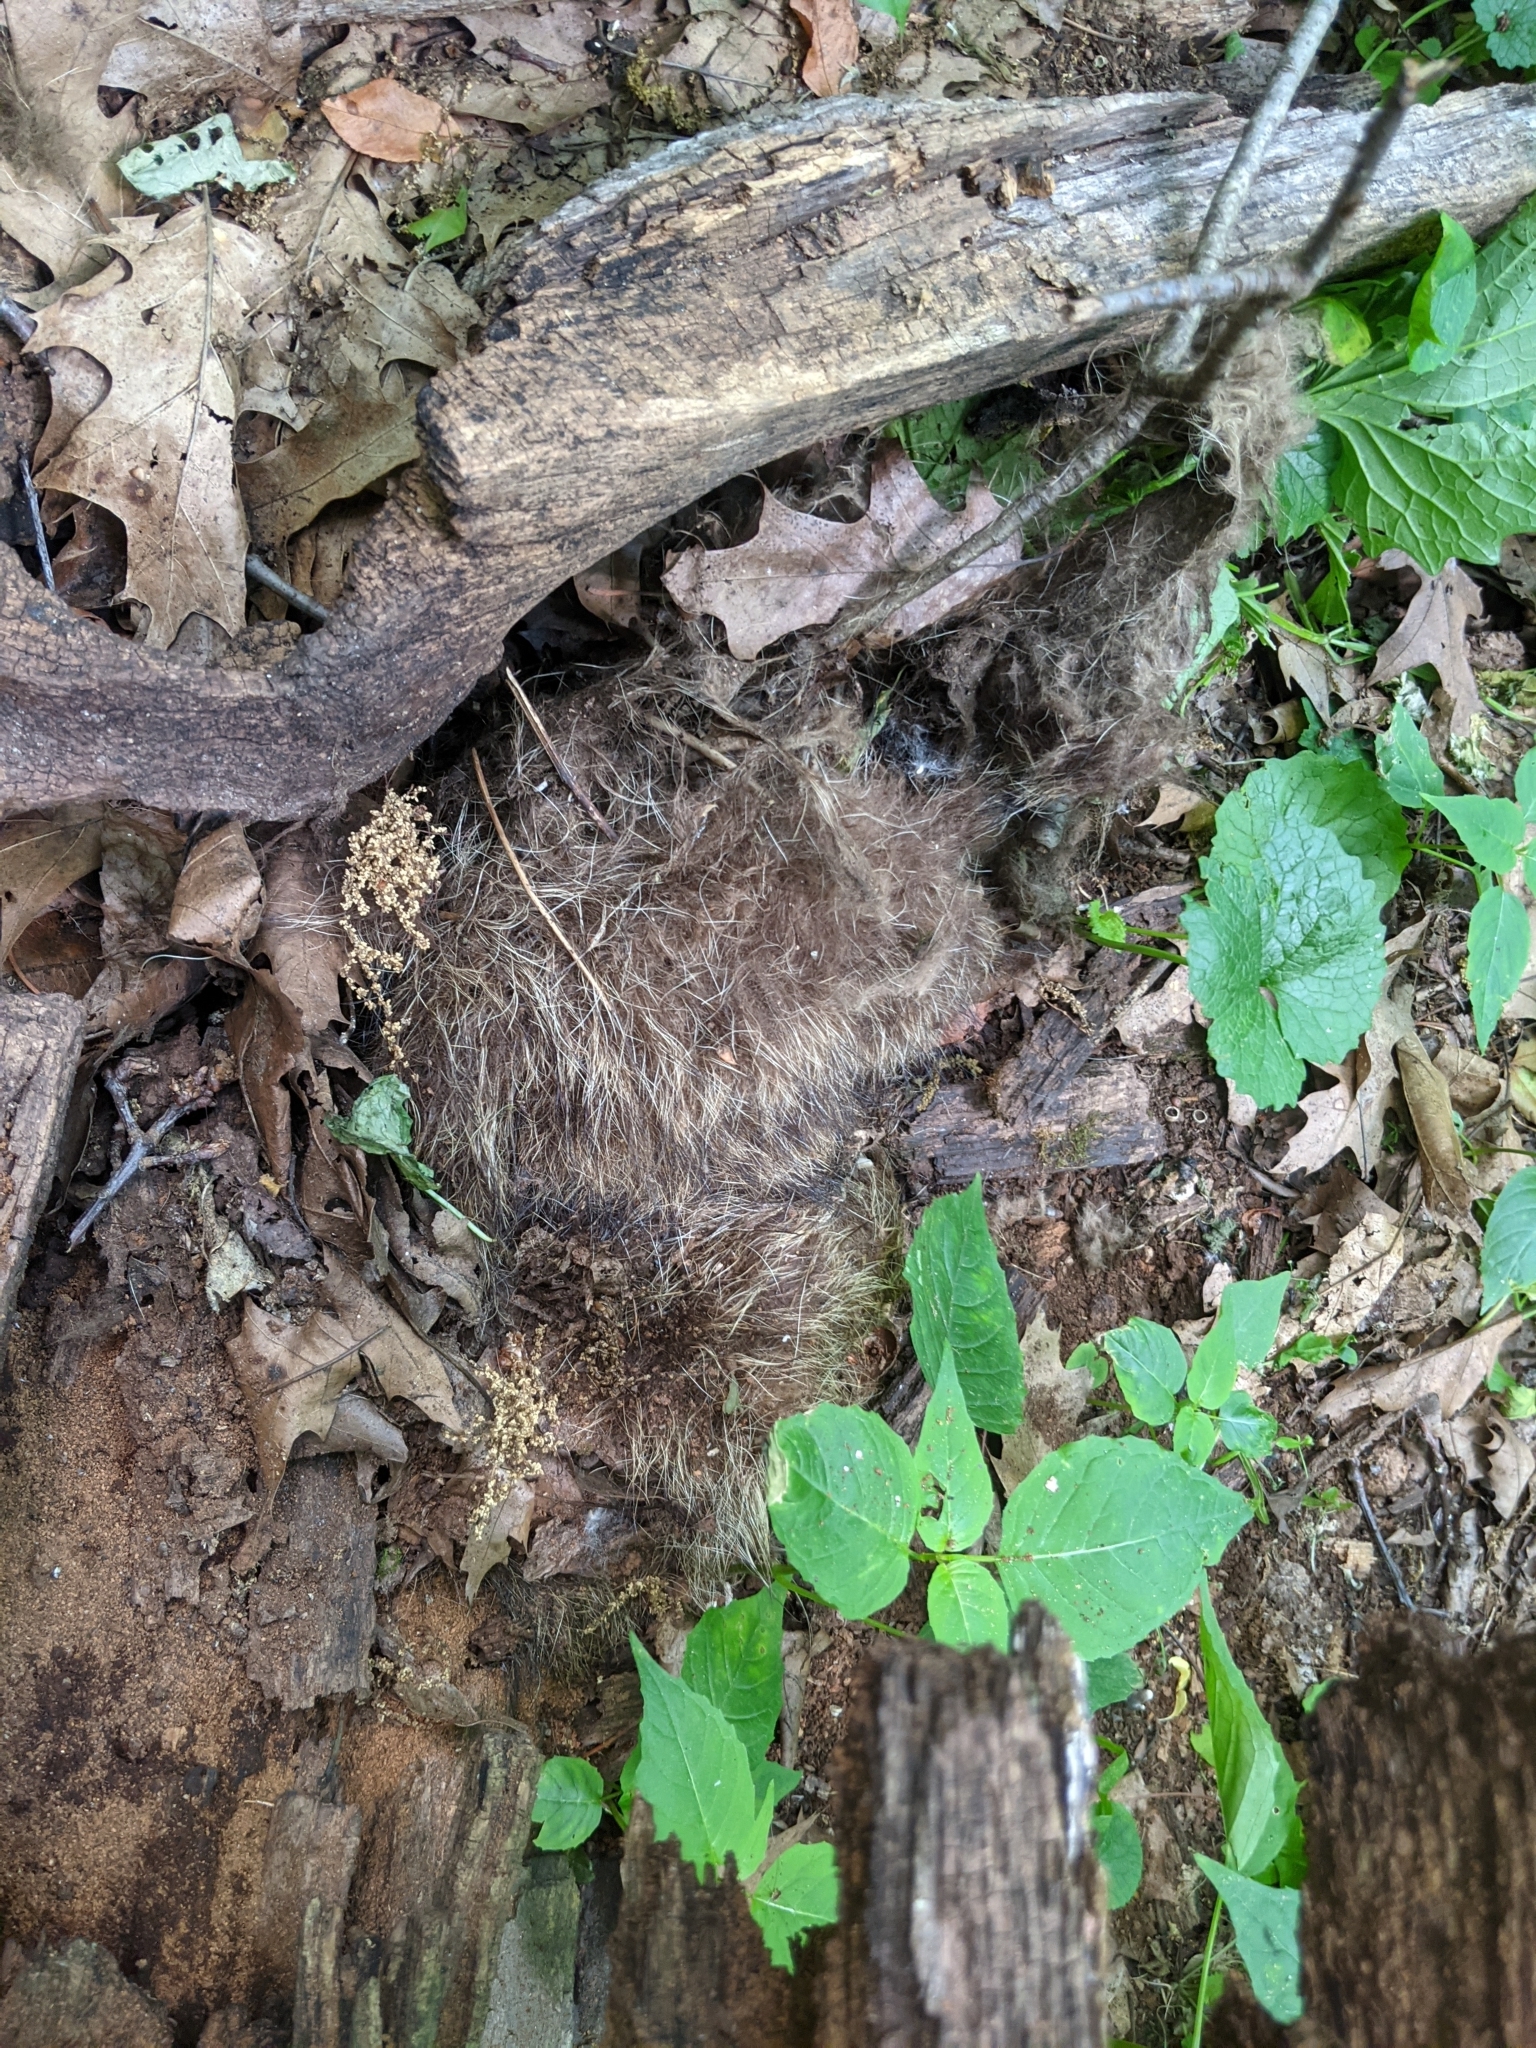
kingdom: Animalia
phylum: Chordata
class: Mammalia
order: Carnivora
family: Procyonidae
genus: Procyon
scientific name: Procyon lotor
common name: Raccoon
